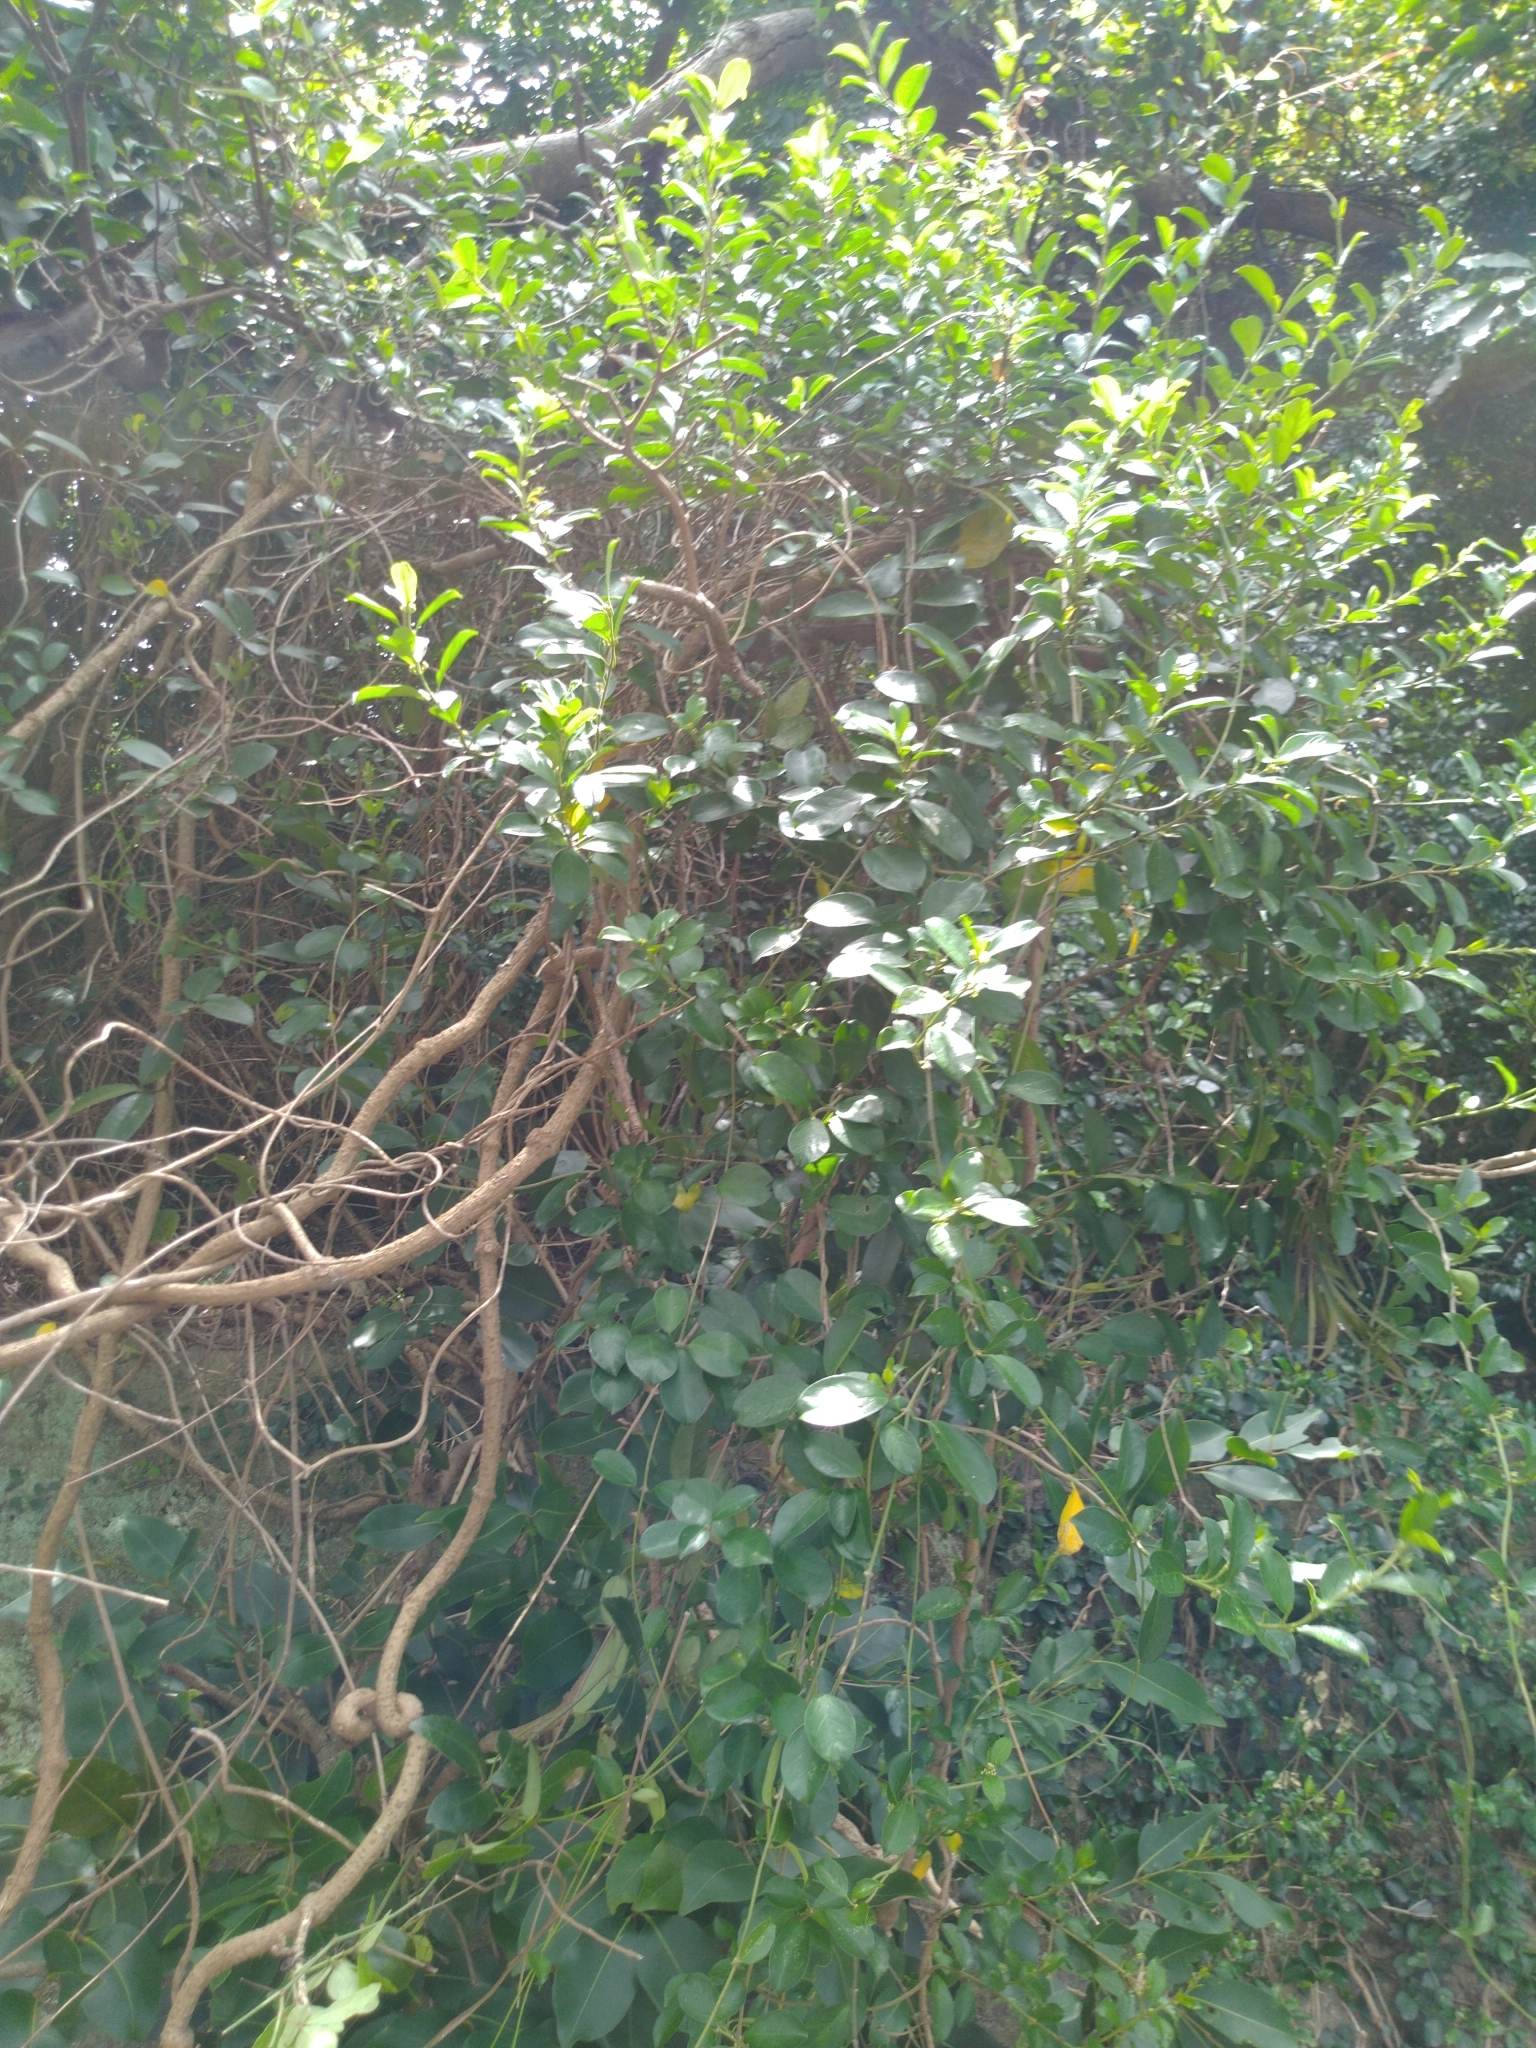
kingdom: Plantae
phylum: Tracheophyta
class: Magnoliopsida
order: Gentianales
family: Apocynaceae
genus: Gymnema
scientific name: Gymnema sylvestre
